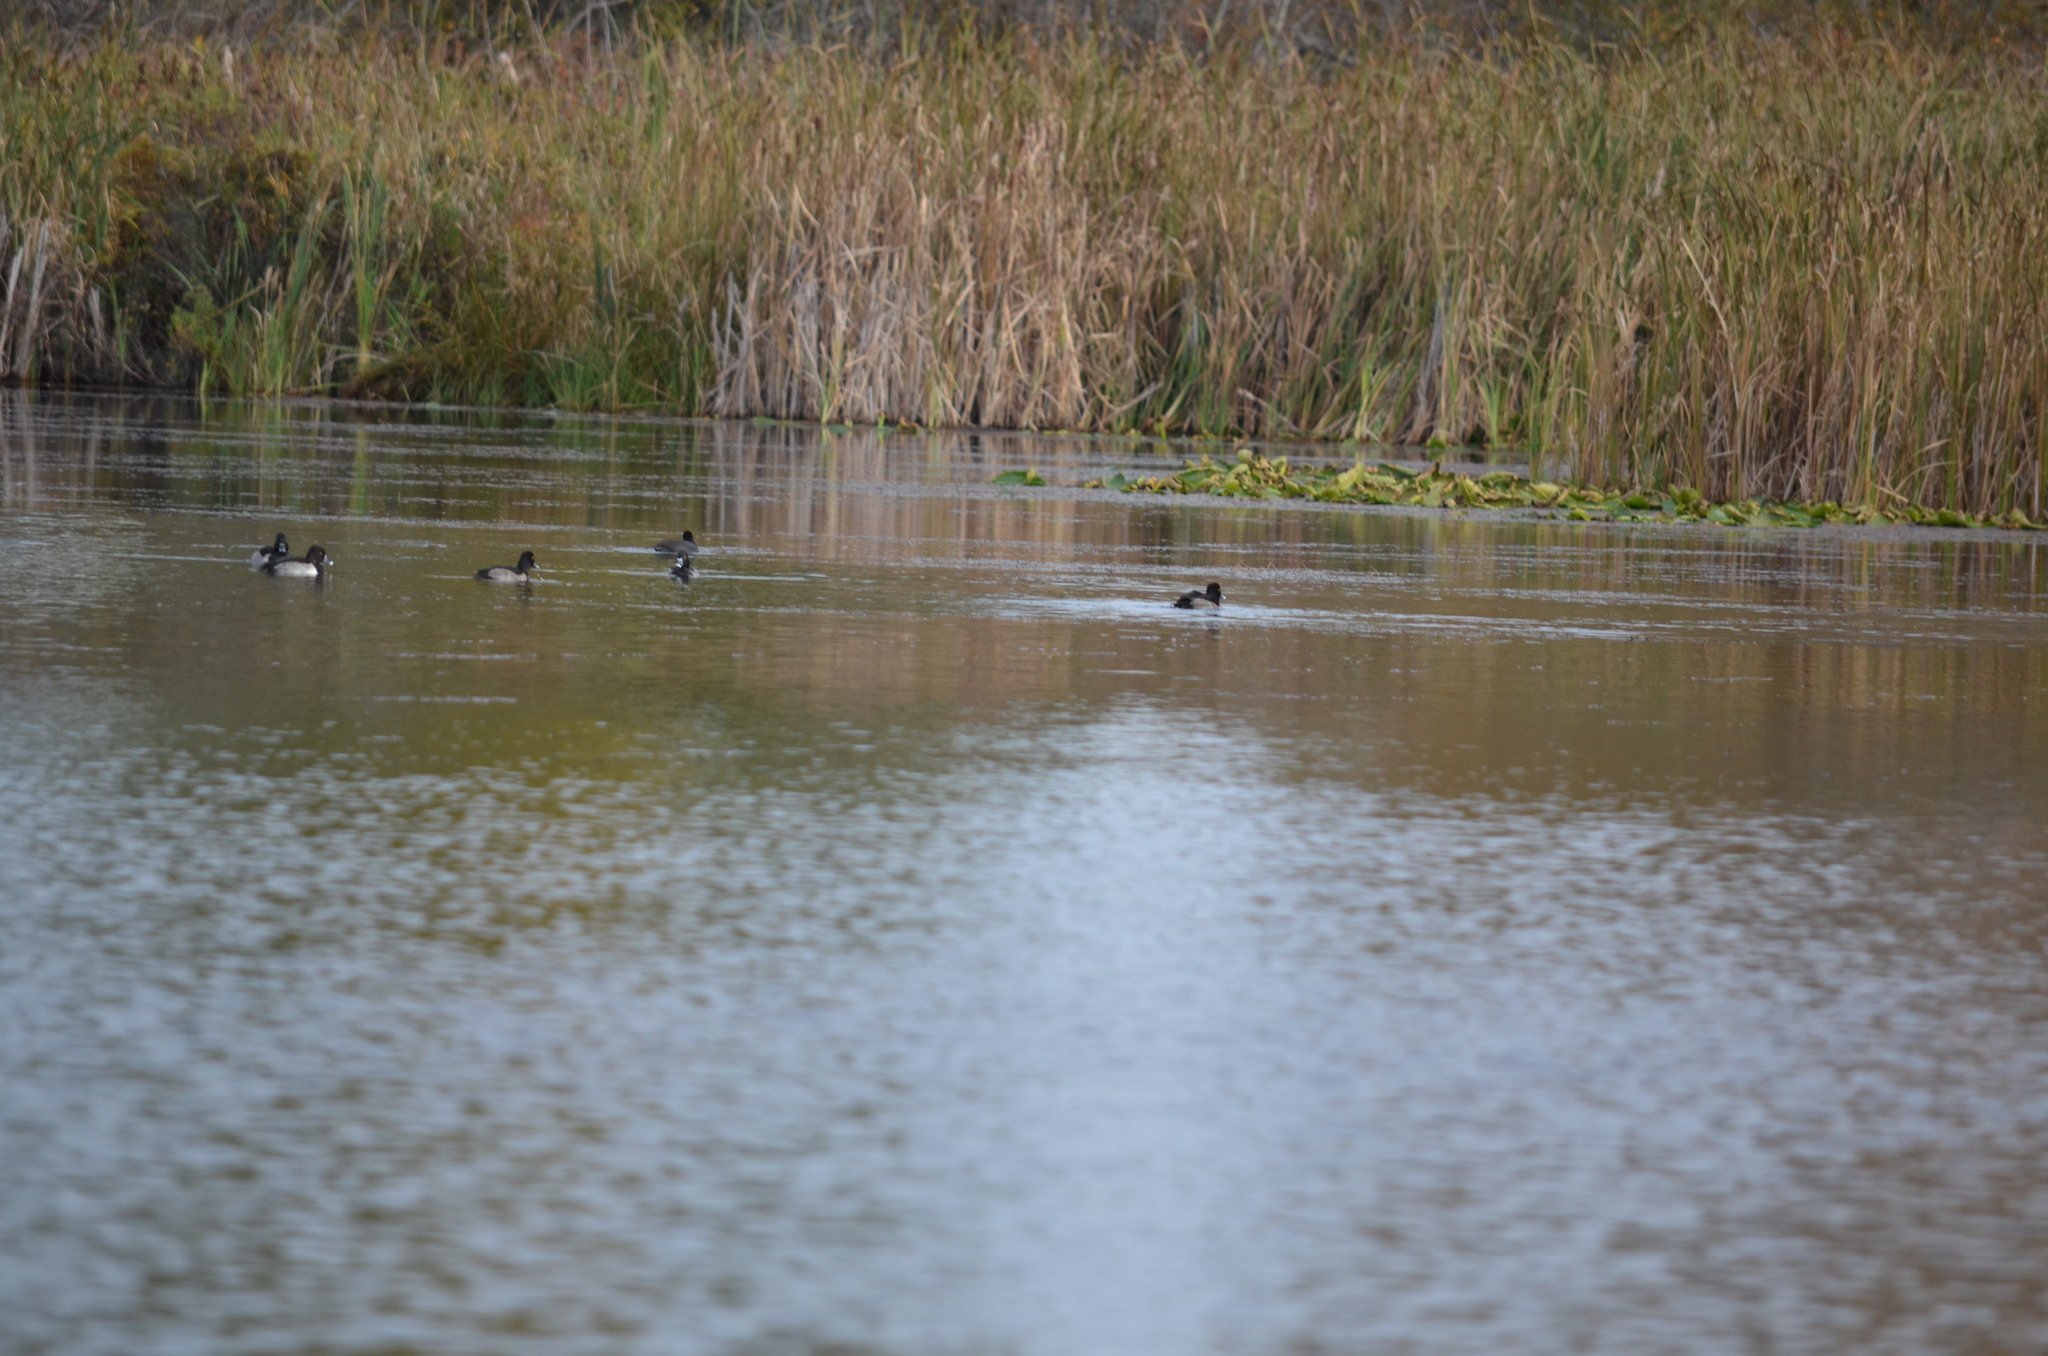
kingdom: Animalia
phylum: Chordata
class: Aves
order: Anseriformes
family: Anatidae
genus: Aythya
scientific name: Aythya collaris
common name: Ring-necked duck
